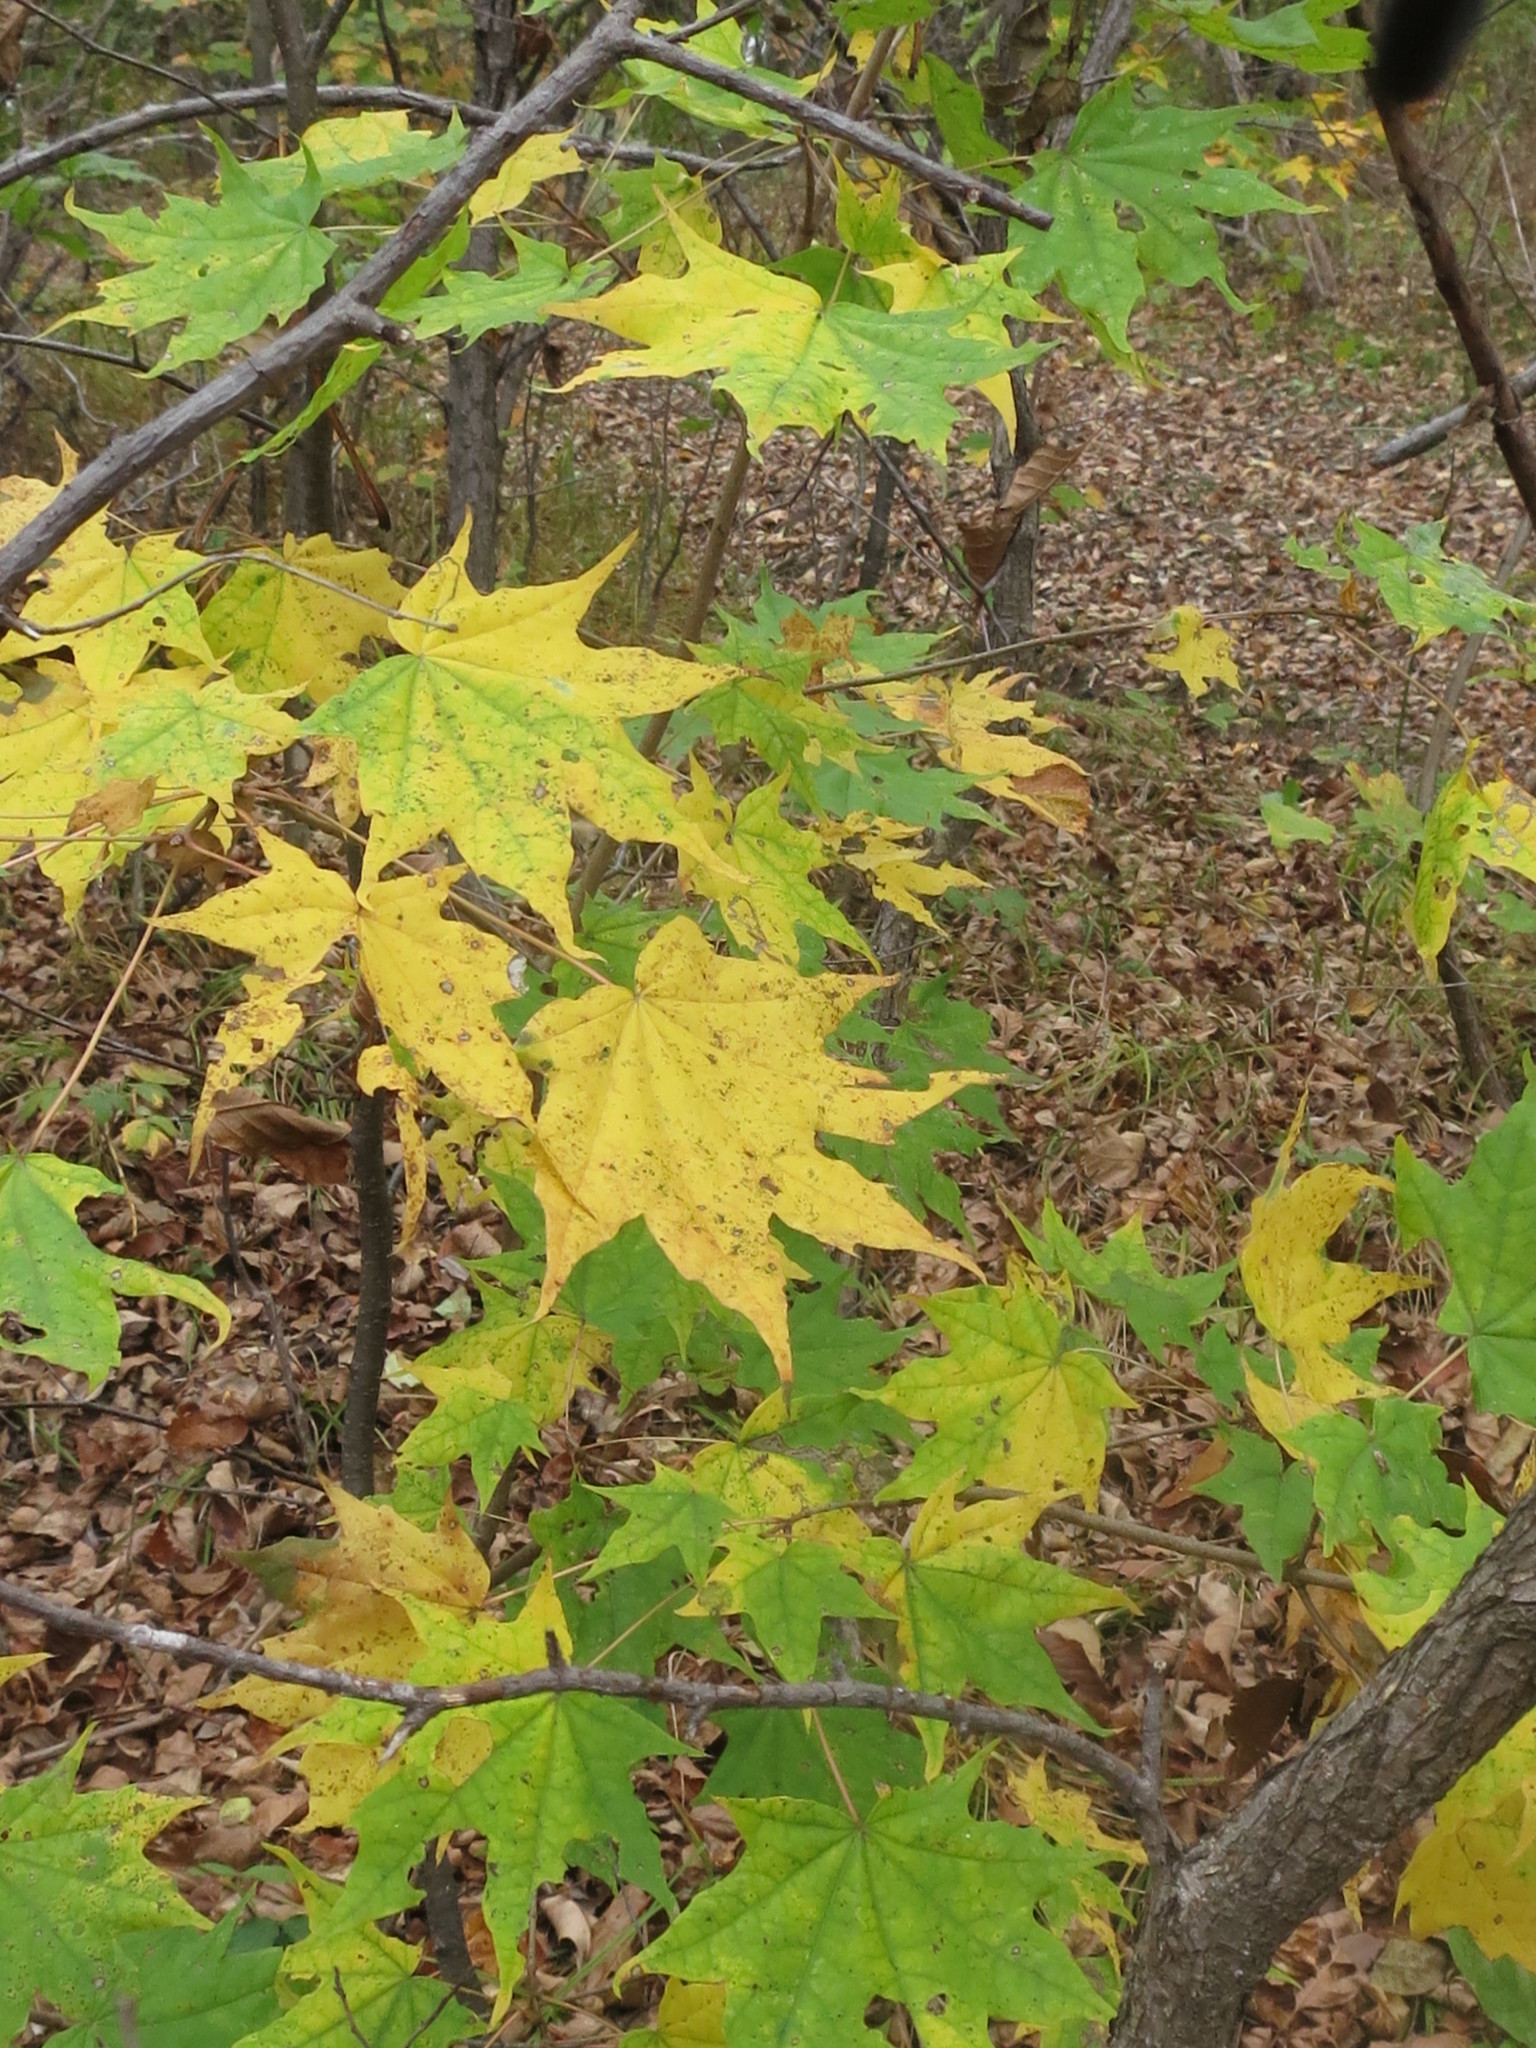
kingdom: Plantae
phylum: Tracheophyta
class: Magnoliopsida
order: Sapindales
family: Sapindaceae
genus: Acer
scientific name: Acer pictum
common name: The painted maple
